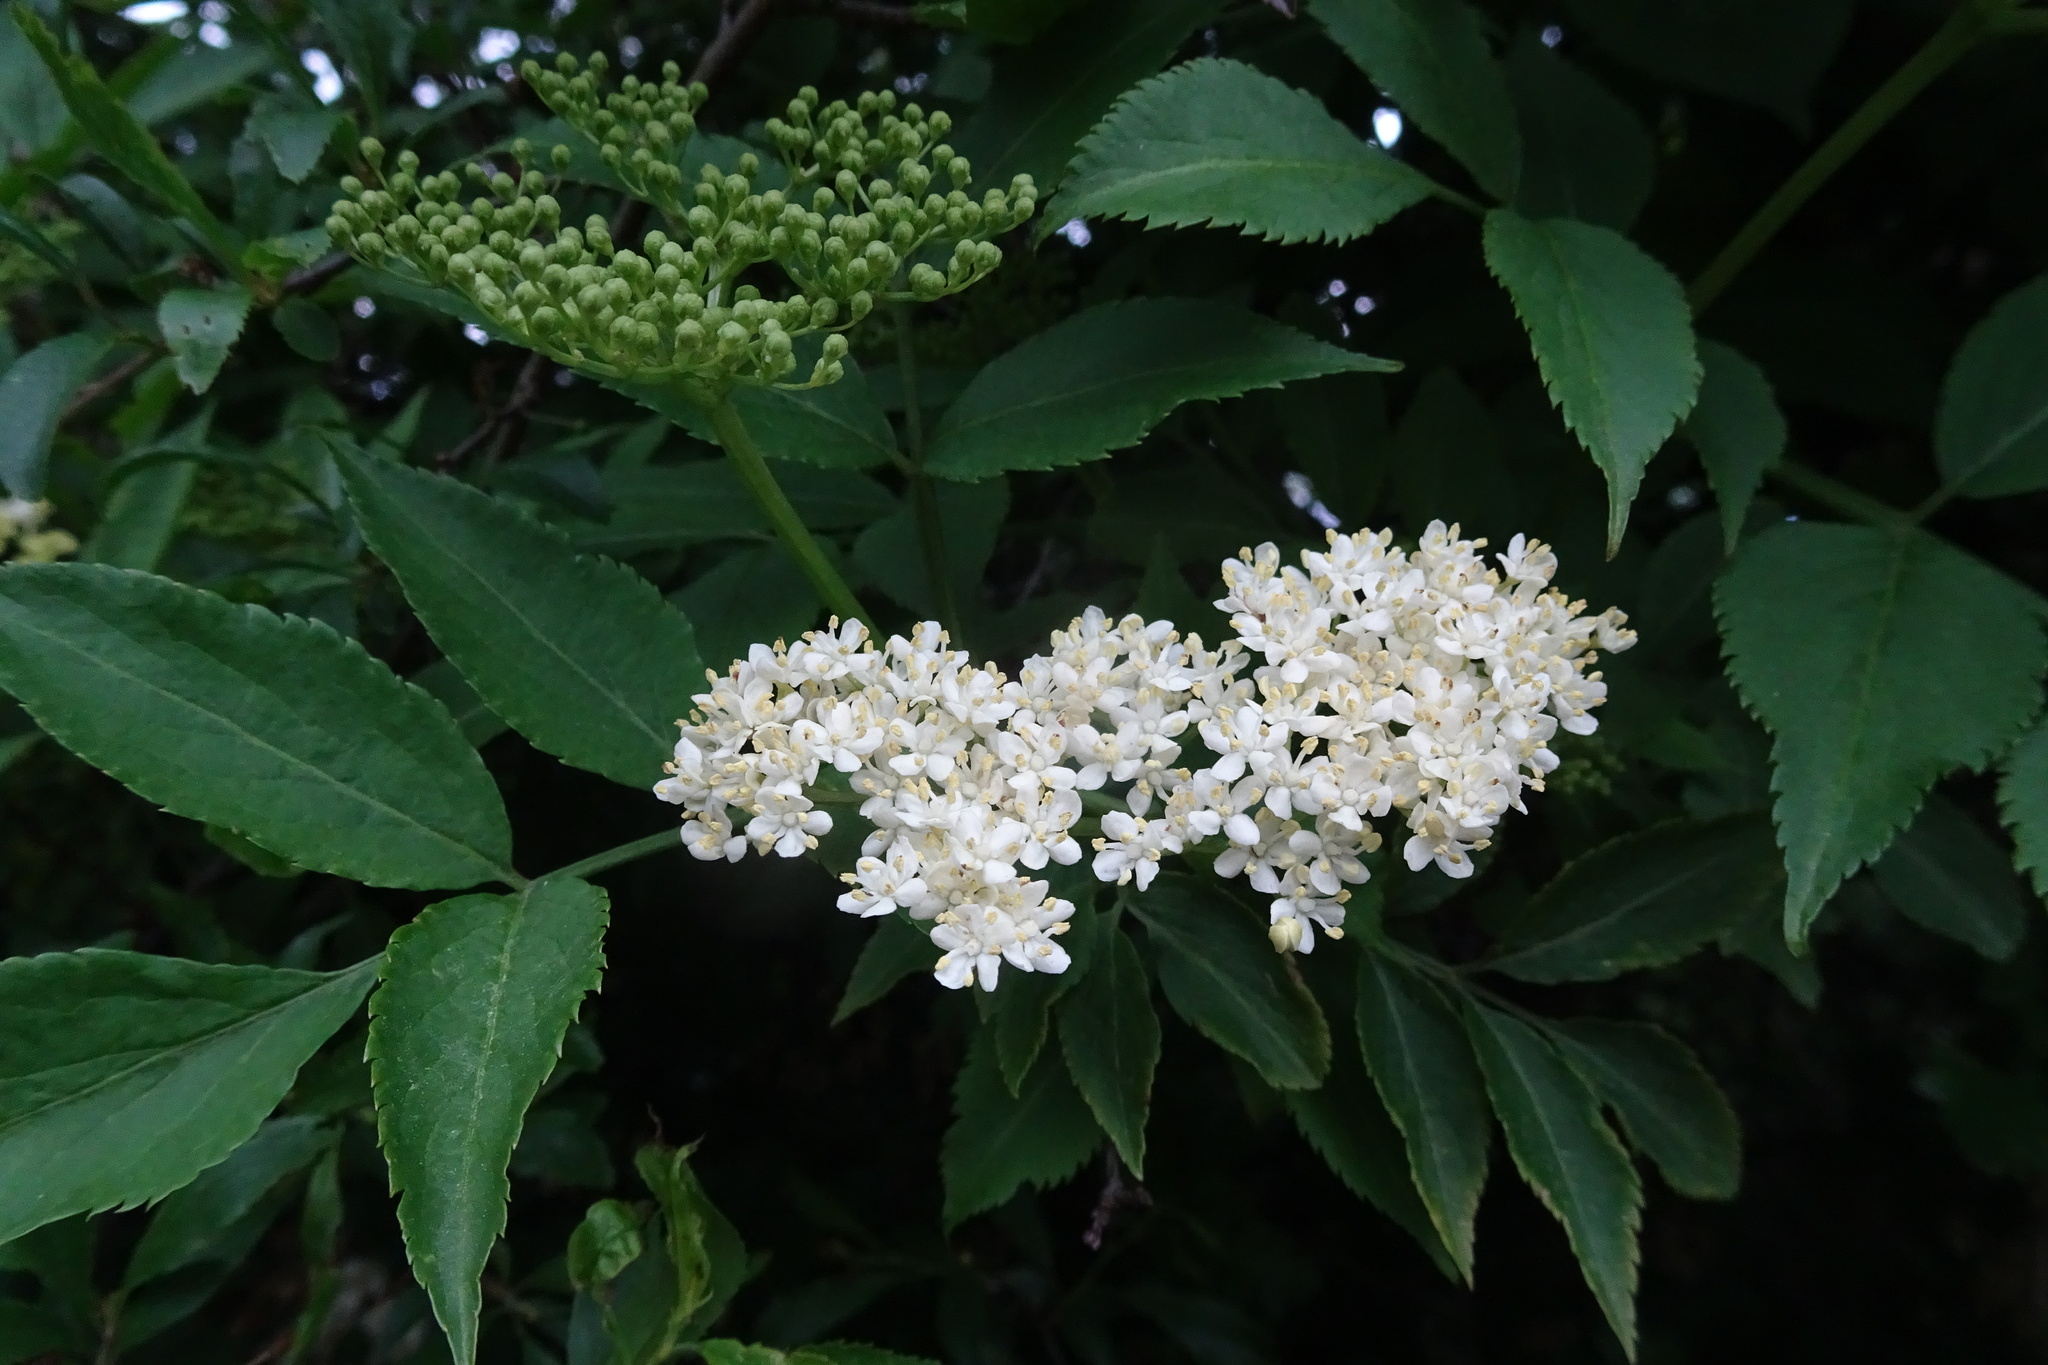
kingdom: Plantae
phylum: Tracheophyta
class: Magnoliopsida
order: Dipsacales
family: Viburnaceae
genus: Sambucus
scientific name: Sambucus nigra
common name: Elder
